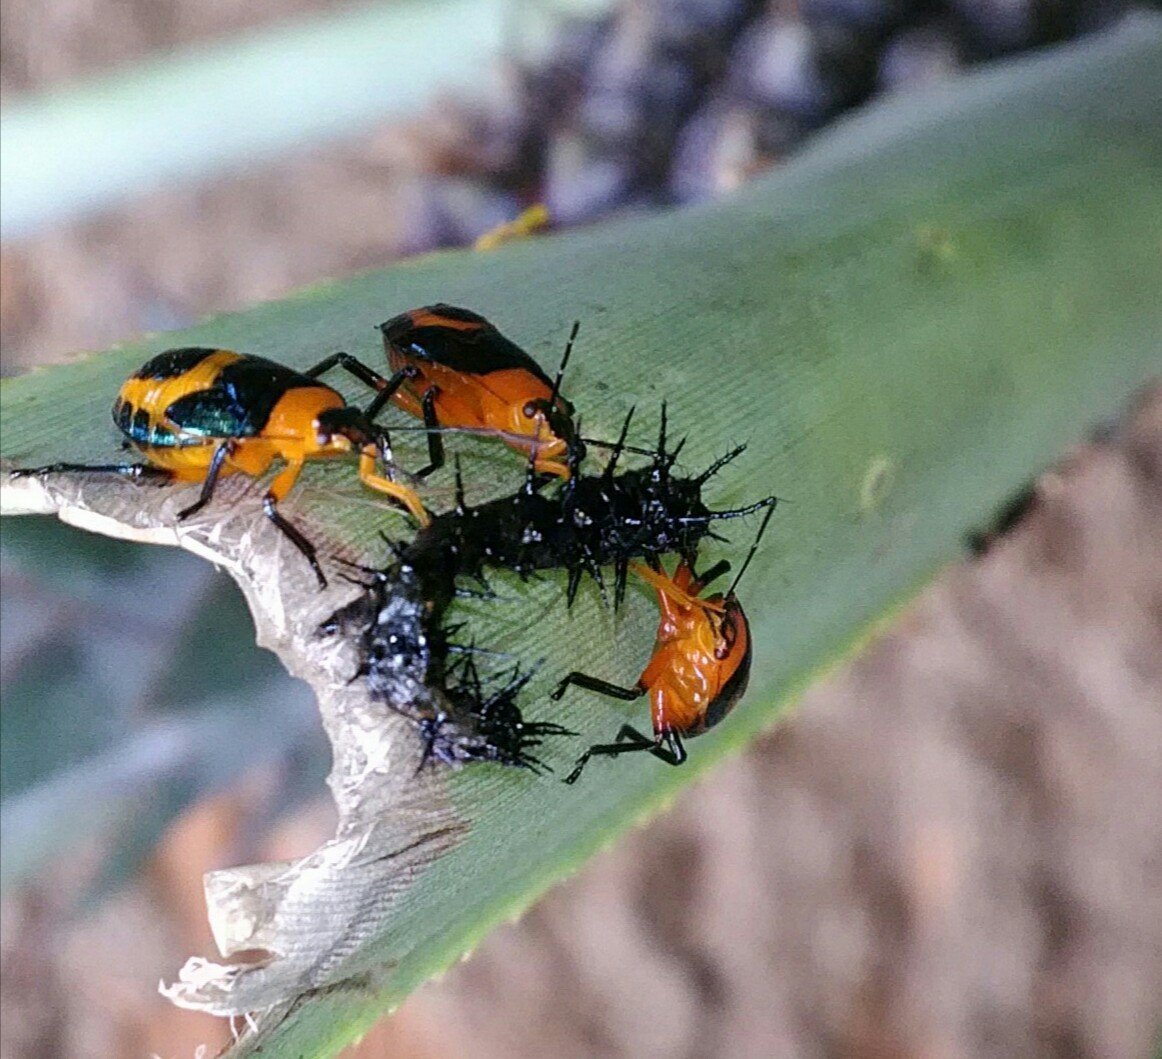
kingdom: Animalia
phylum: Arthropoda
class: Insecta
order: Hemiptera
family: Pentatomidae
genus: Tynacantha
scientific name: Tynacantha marginata
